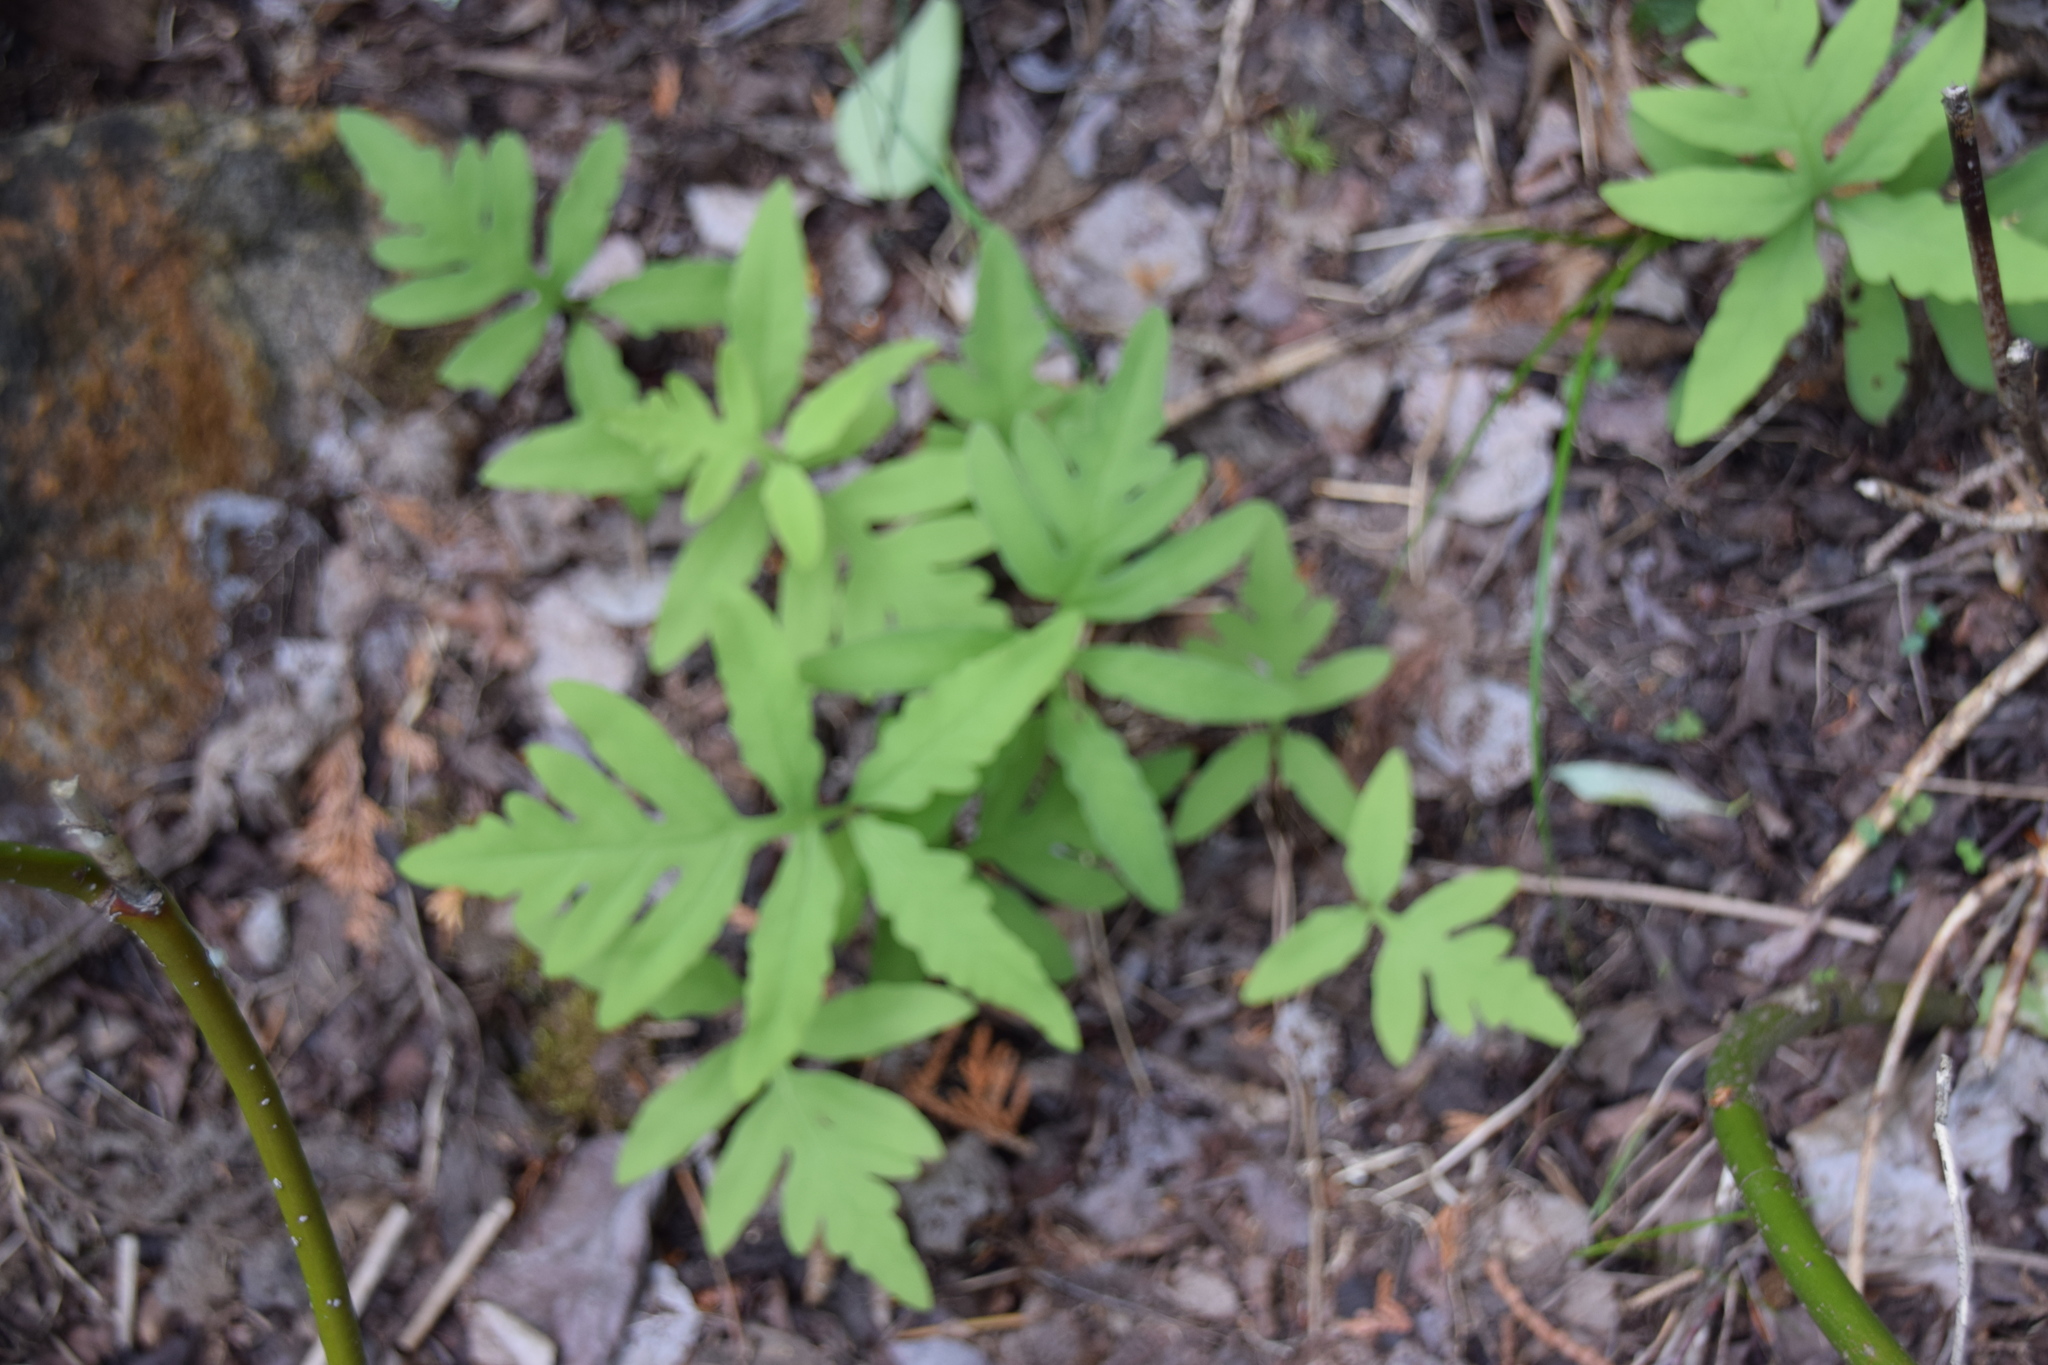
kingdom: Plantae
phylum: Tracheophyta
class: Polypodiopsida
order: Polypodiales
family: Onocleaceae
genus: Onoclea
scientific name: Onoclea sensibilis
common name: Sensitive fern
